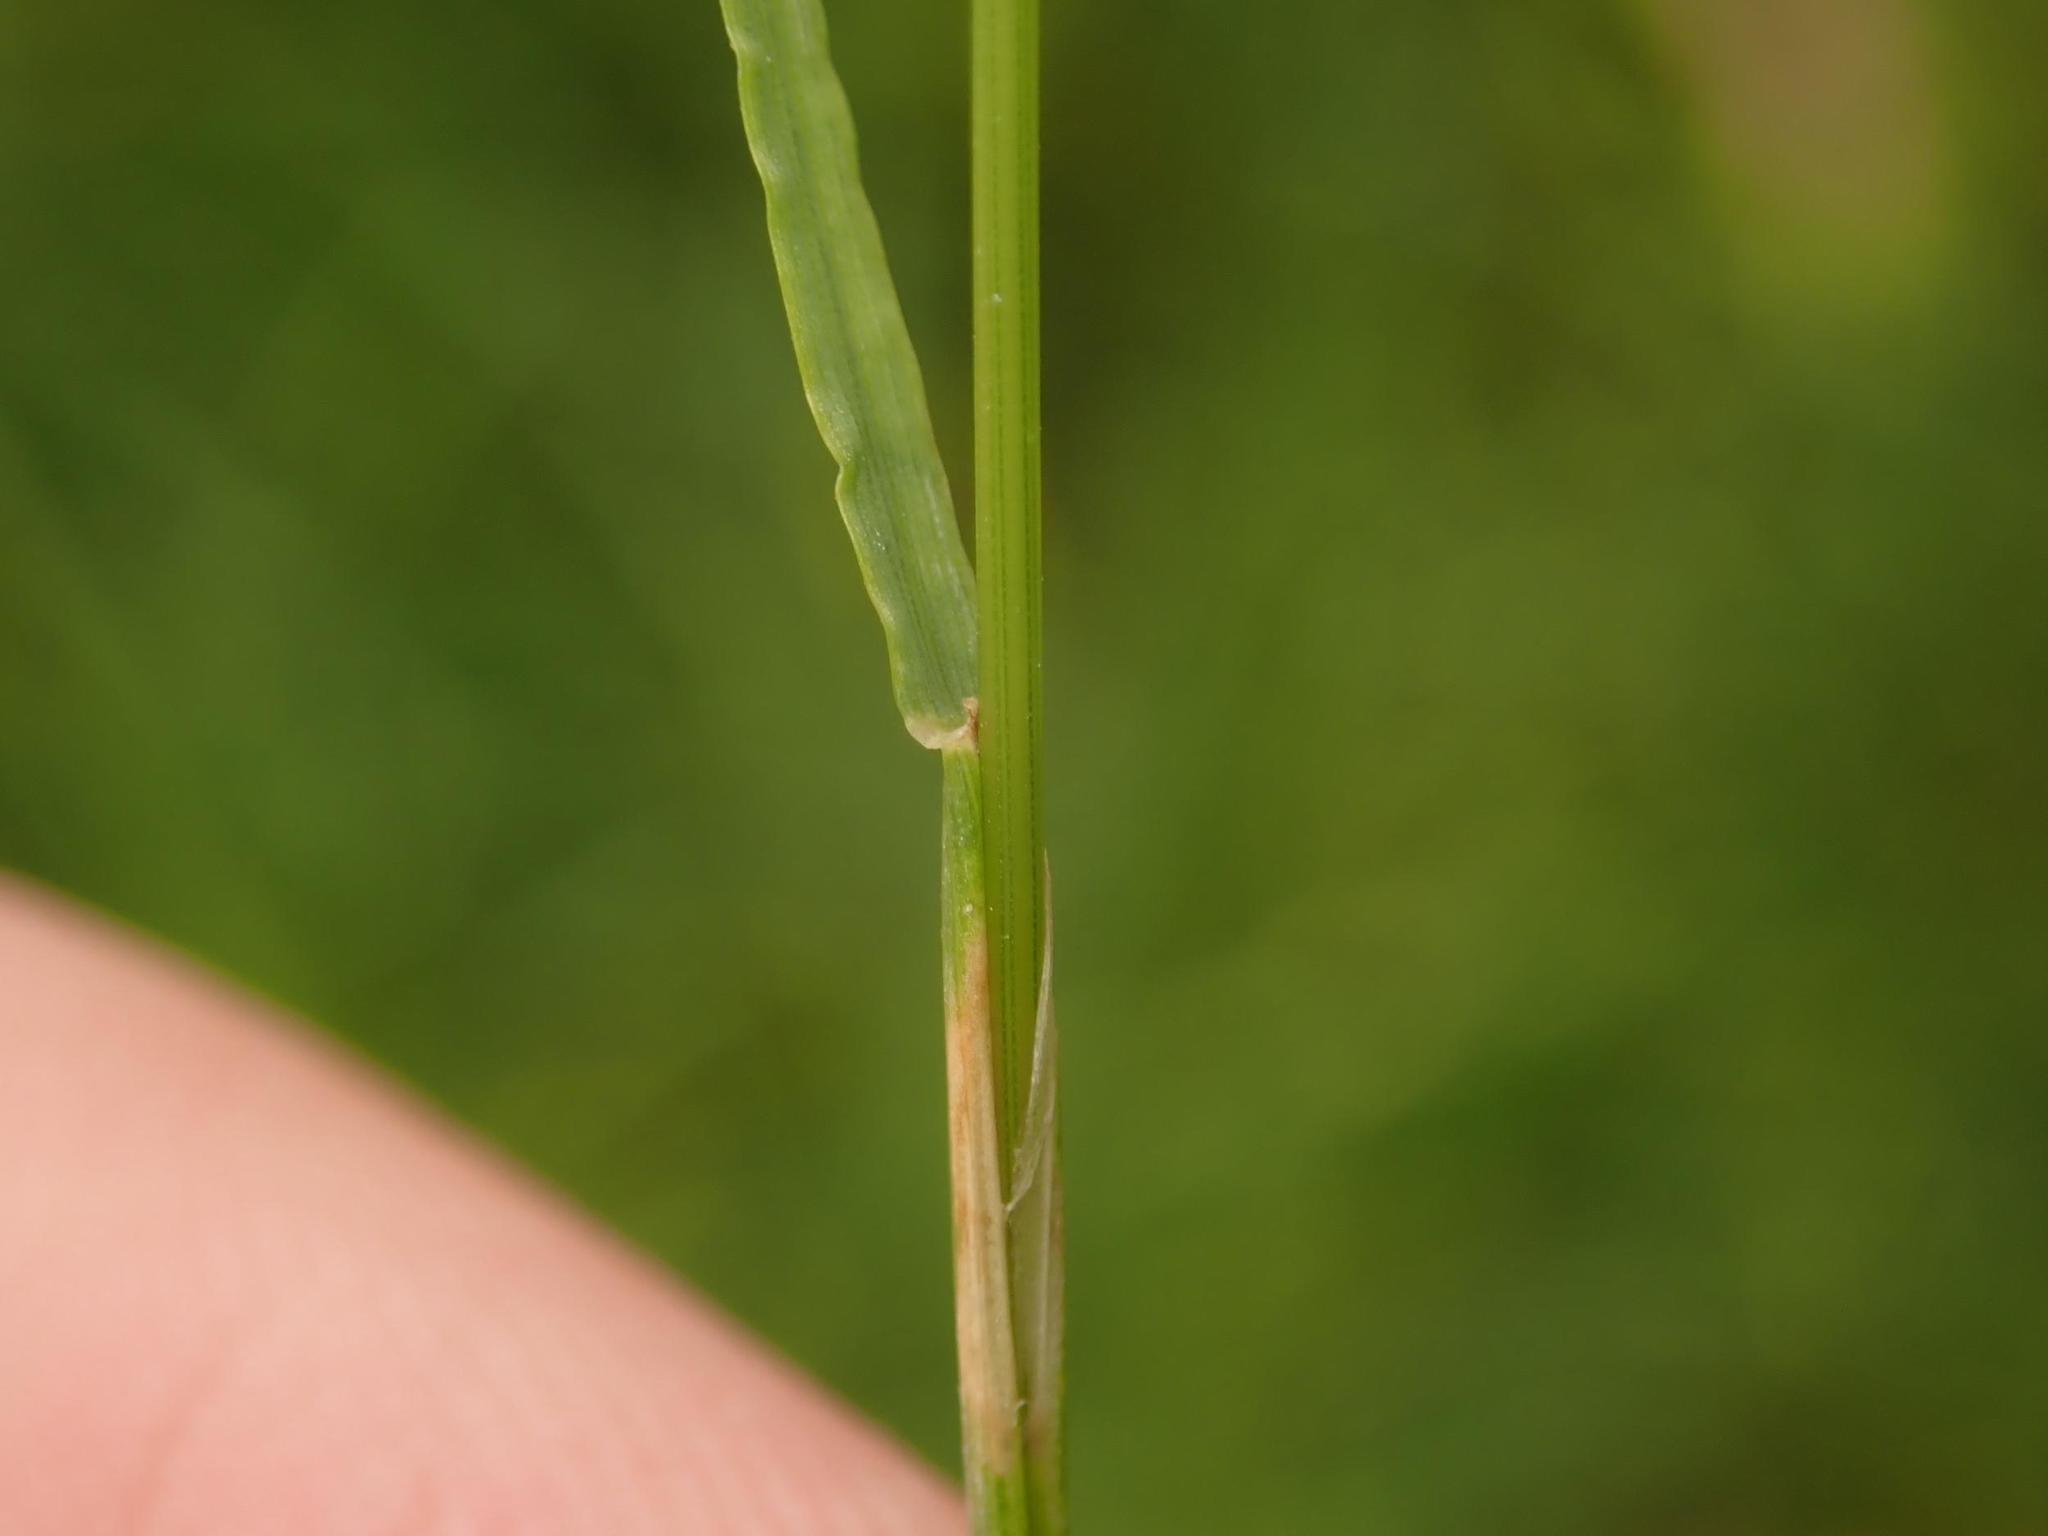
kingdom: Plantae
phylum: Tracheophyta
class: Liliopsida
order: Poales
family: Poaceae
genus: Cynosurus
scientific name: Cynosurus cristatus
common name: Crested dog's-tail
